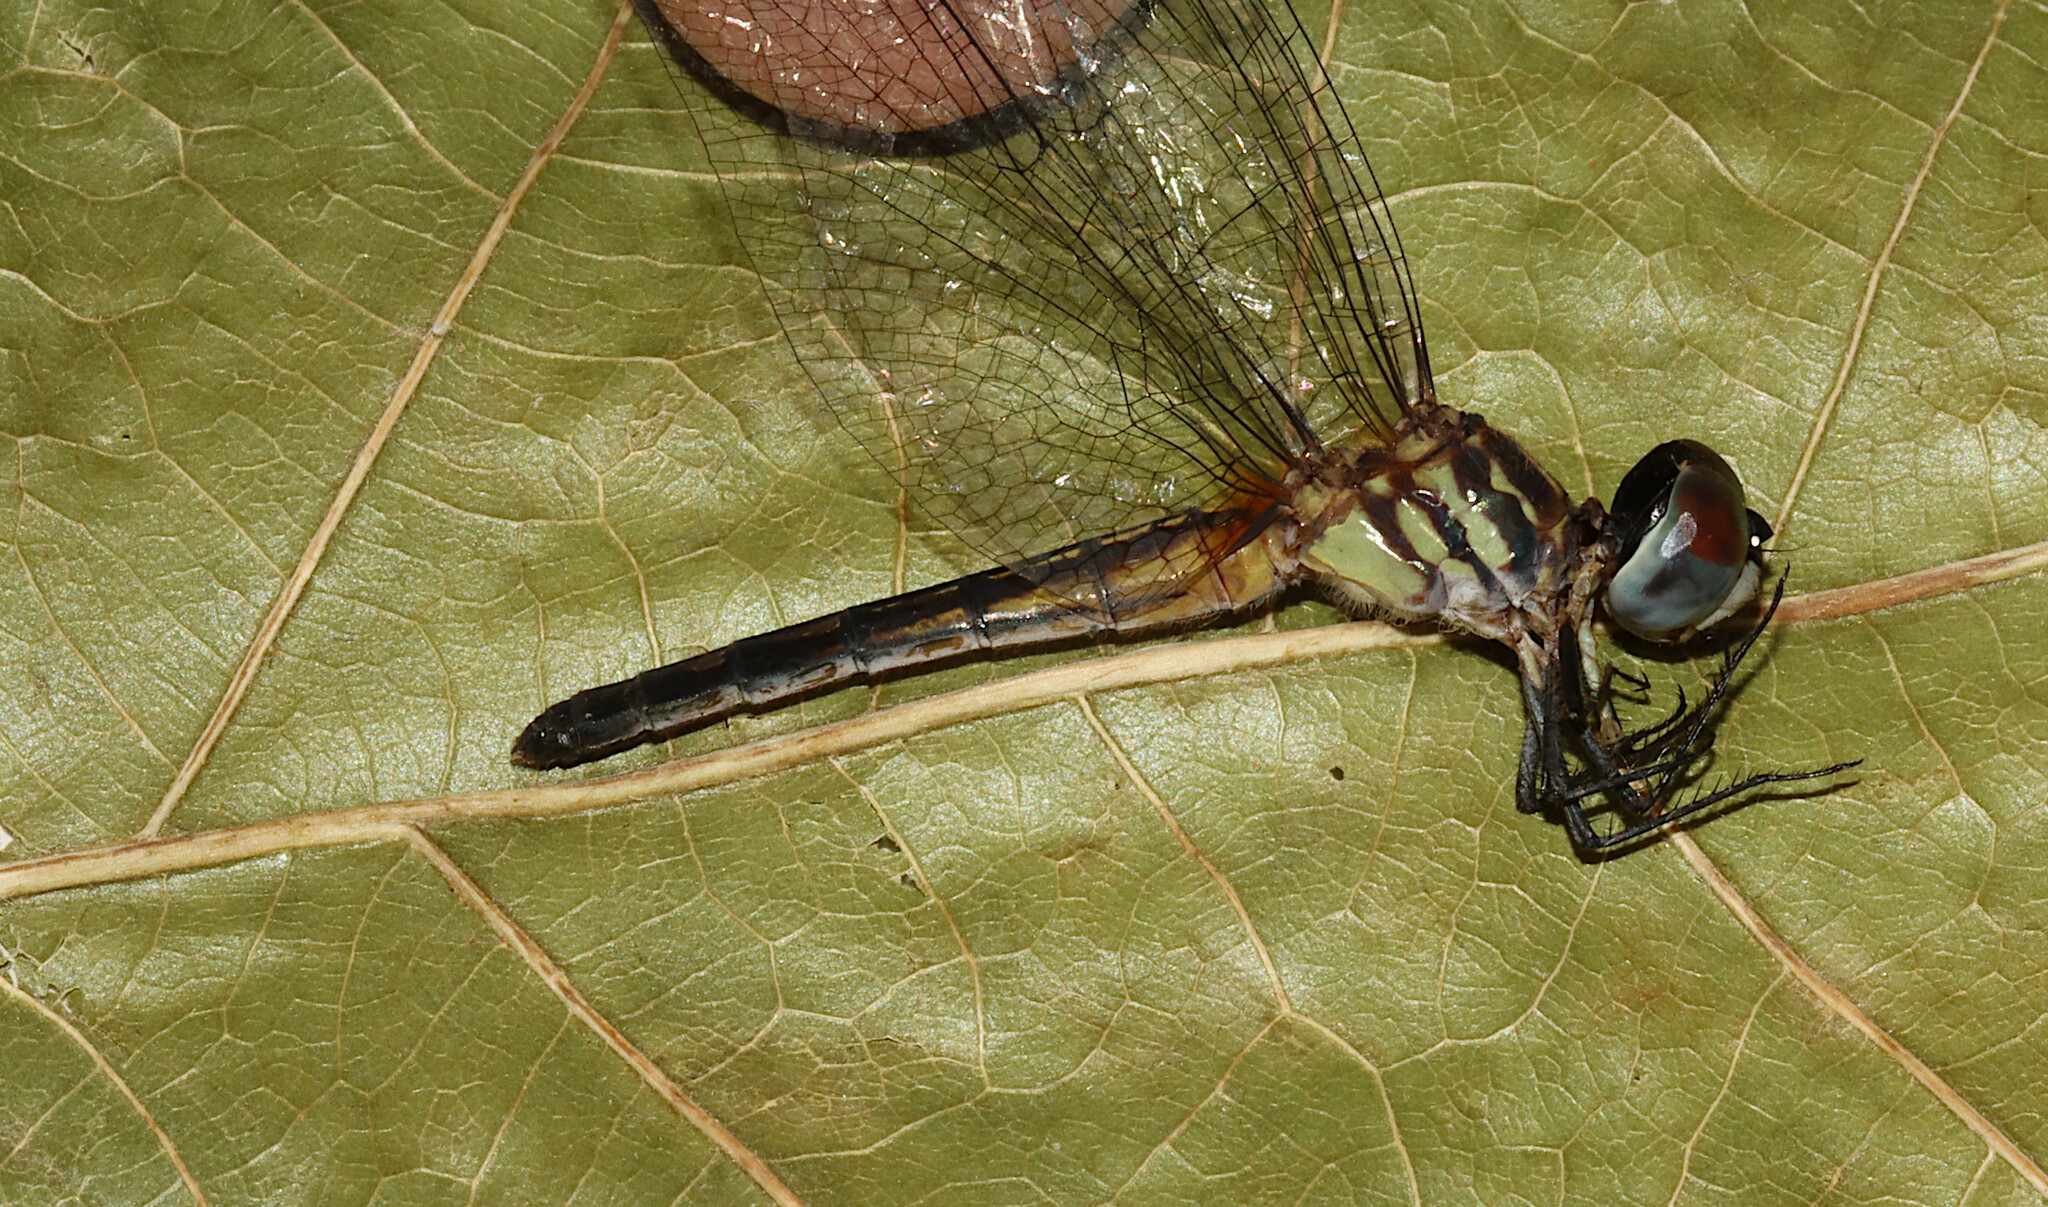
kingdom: Animalia
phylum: Arthropoda
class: Insecta
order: Odonata
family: Libellulidae
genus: Pachydiplax
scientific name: Pachydiplax longipennis
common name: Blue dasher
